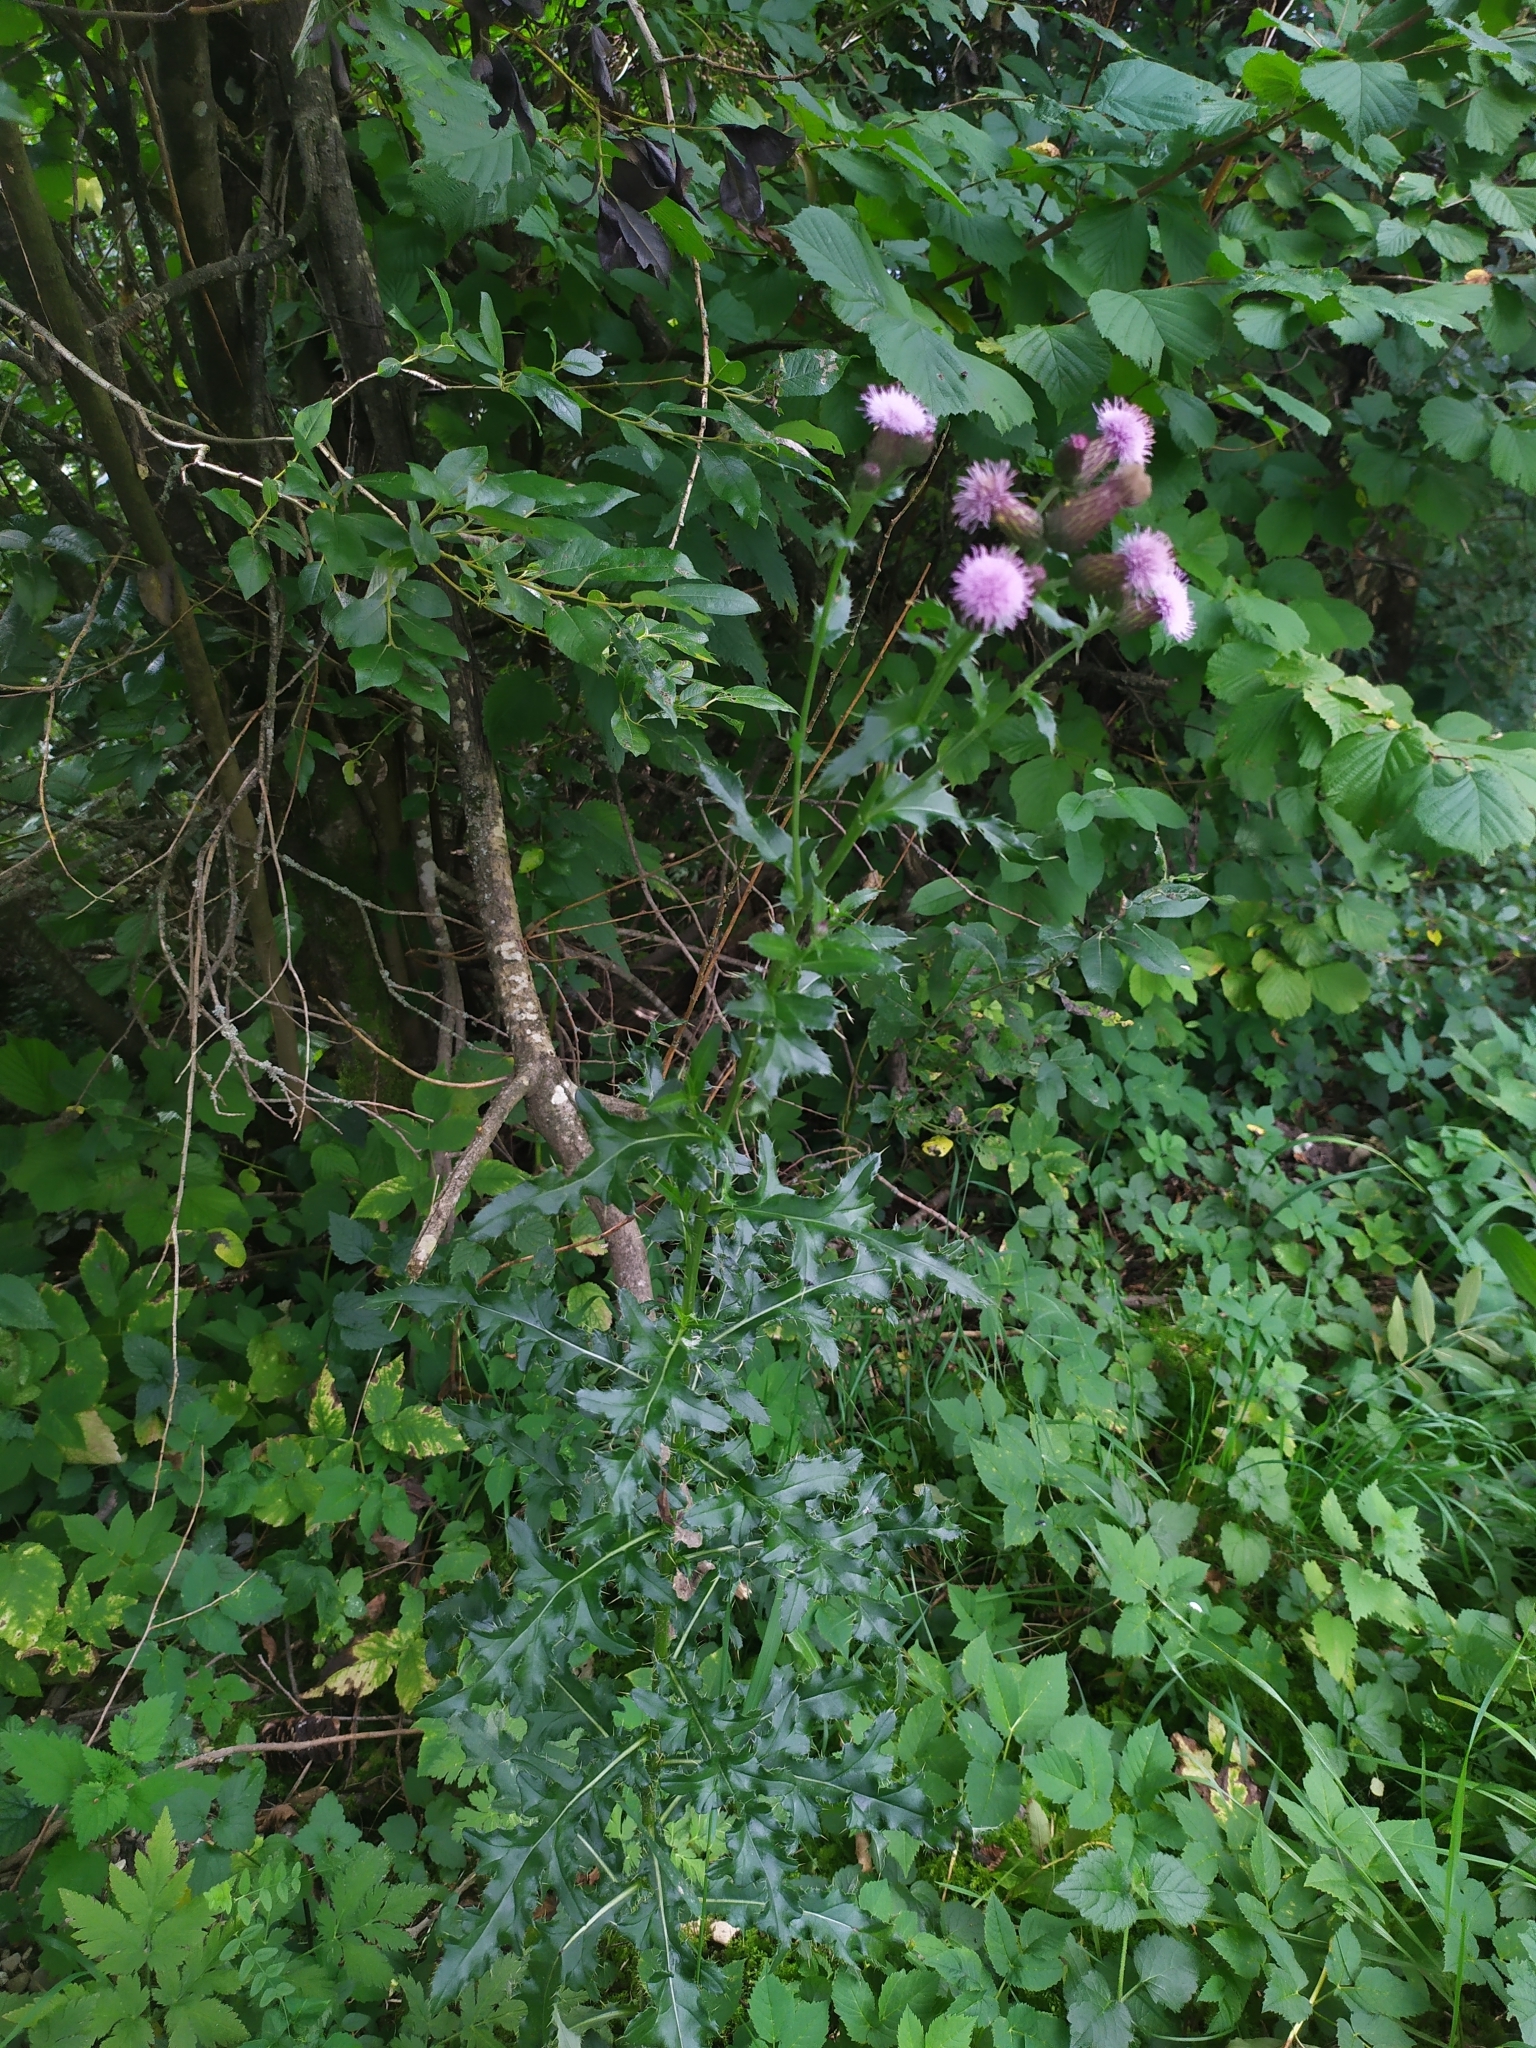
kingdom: Plantae
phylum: Tracheophyta
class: Magnoliopsida
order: Asterales
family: Asteraceae
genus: Cirsium
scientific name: Cirsium arvense
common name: Creeping thistle
